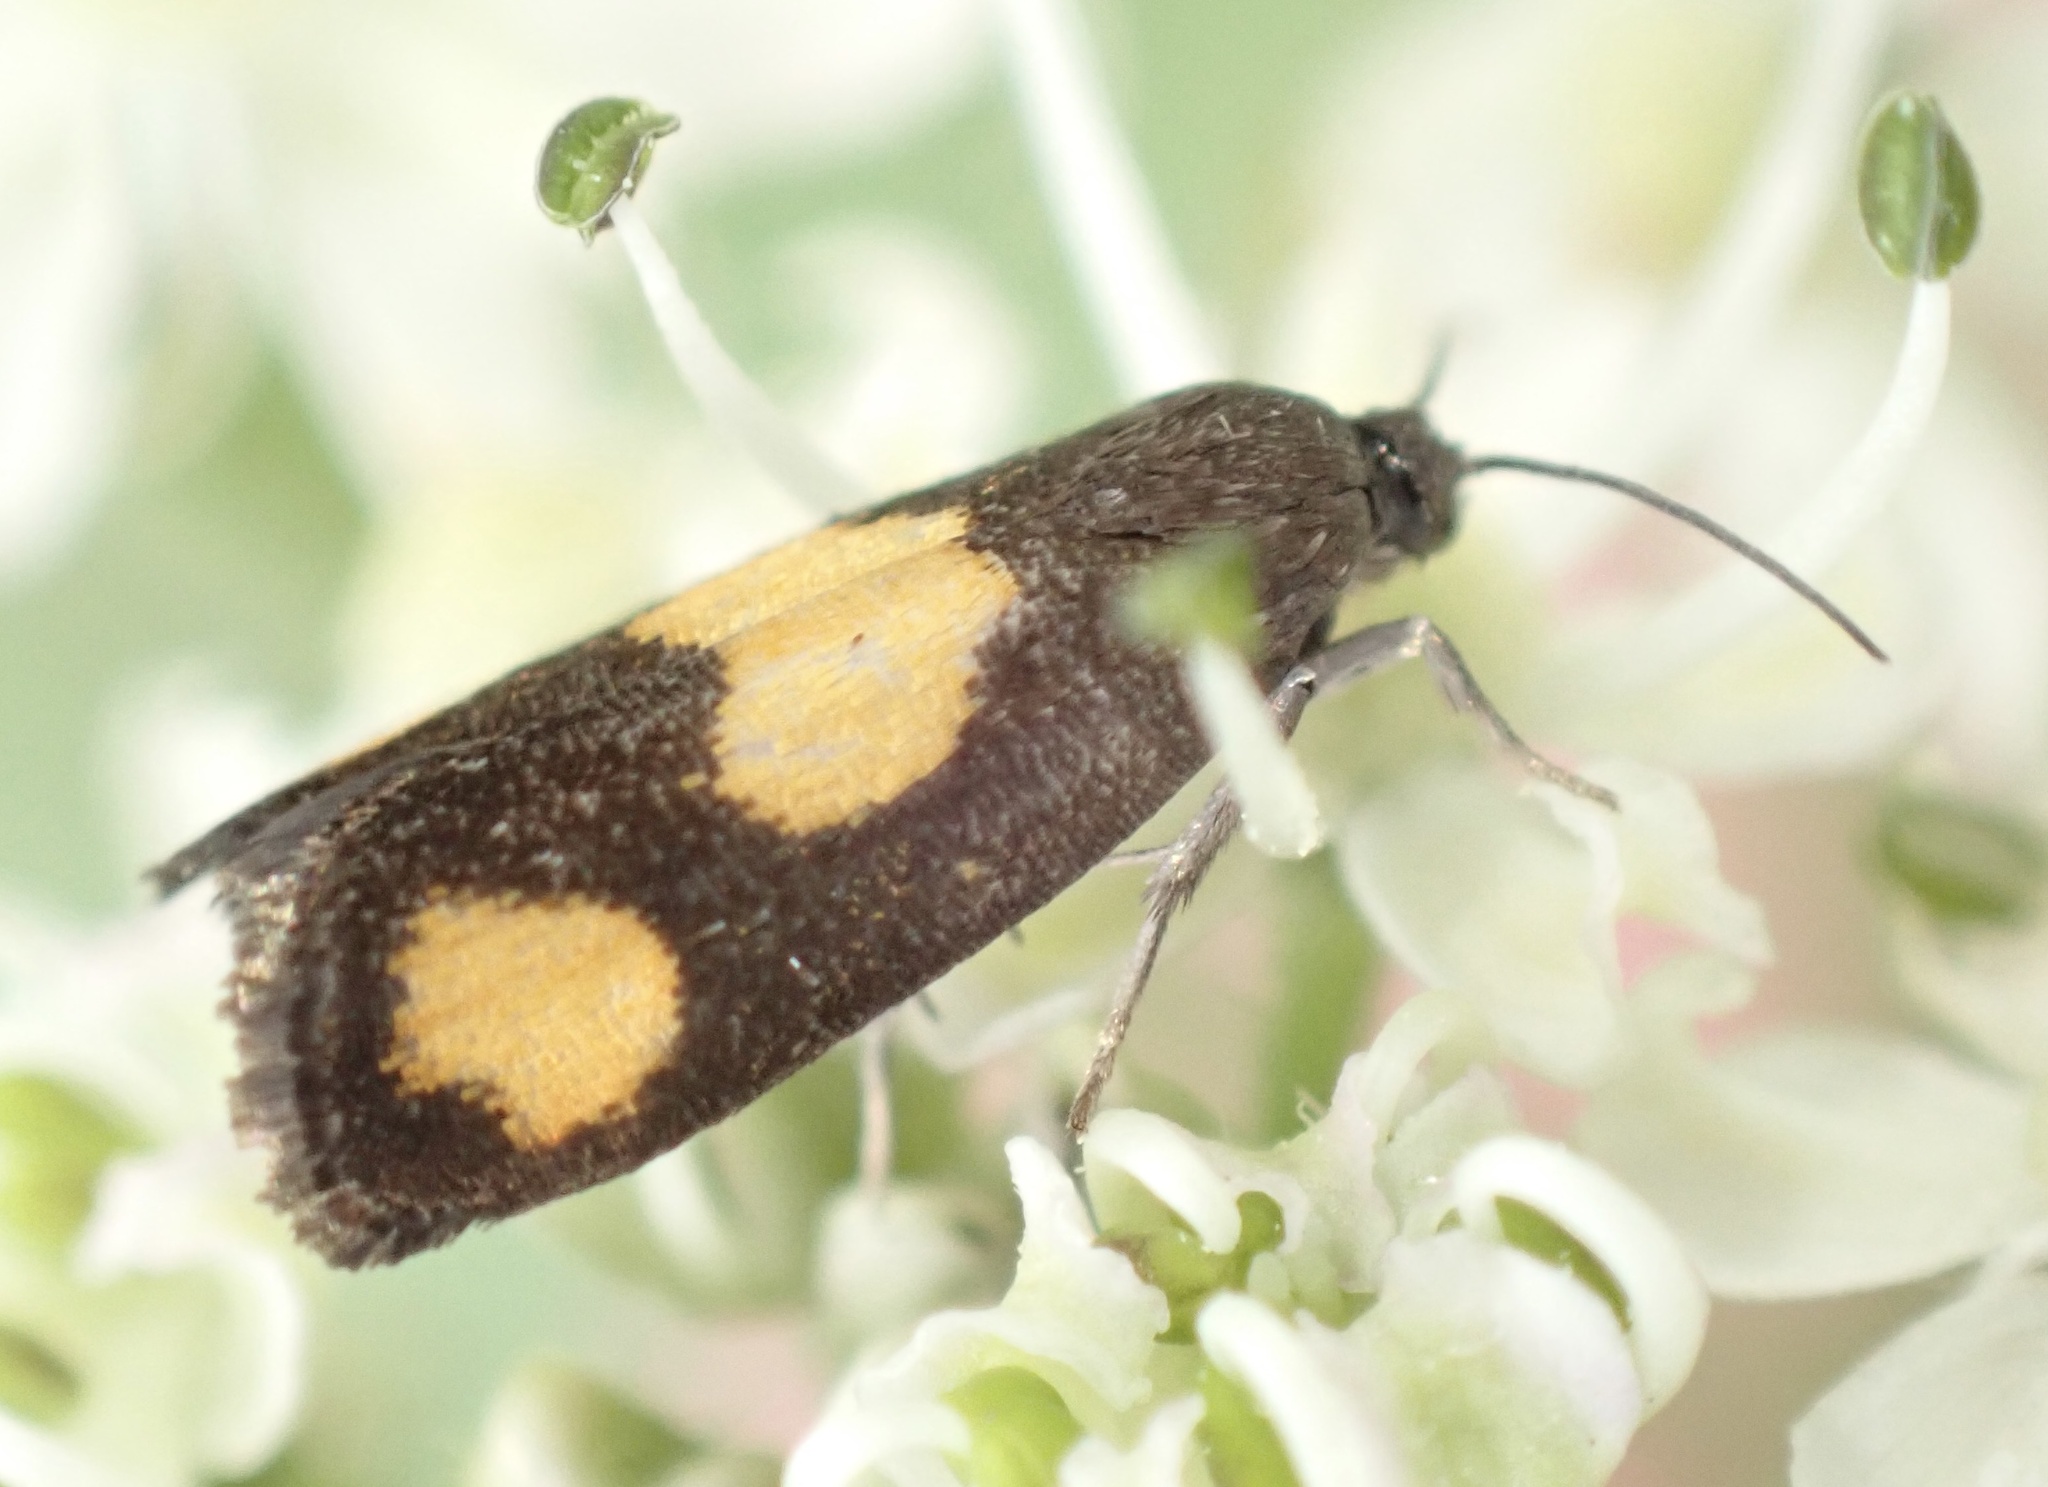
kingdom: Animalia
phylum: Arthropoda
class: Insecta
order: Lepidoptera
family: Tortricidae
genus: Pammene
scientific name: Pammene aurana
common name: Orange-spot piercer
